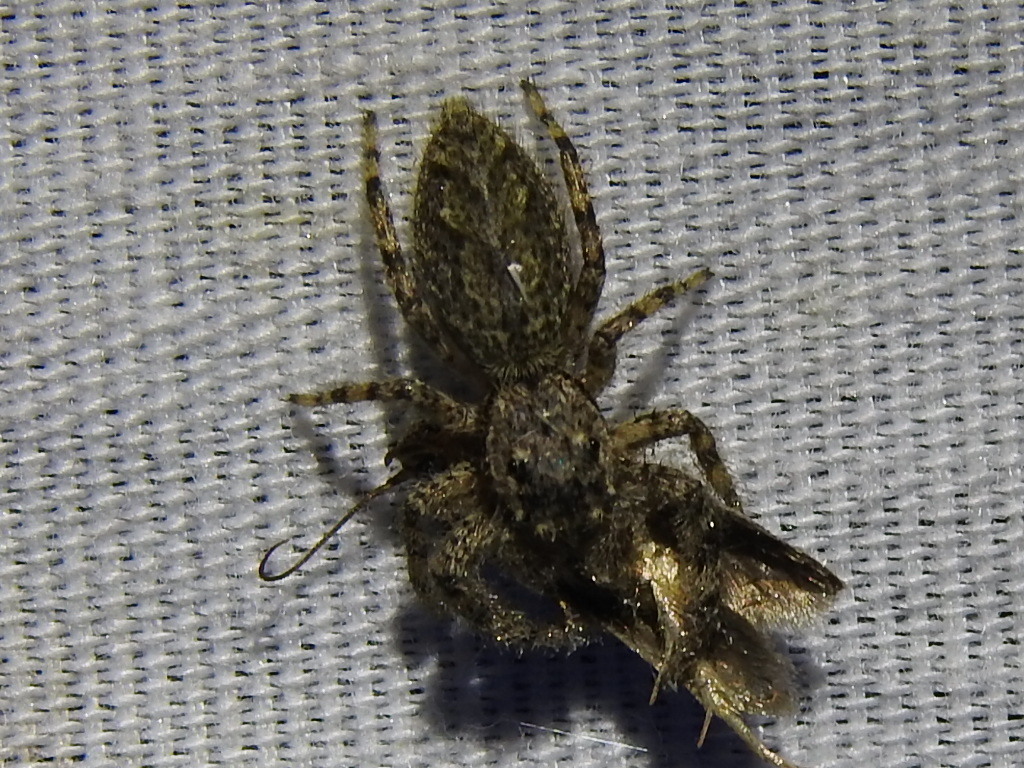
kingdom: Animalia
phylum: Arthropoda
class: Arachnida
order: Araneae
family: Salticidae
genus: Platycryptus
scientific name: Platycryptus undatus
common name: Tan jumping spider
